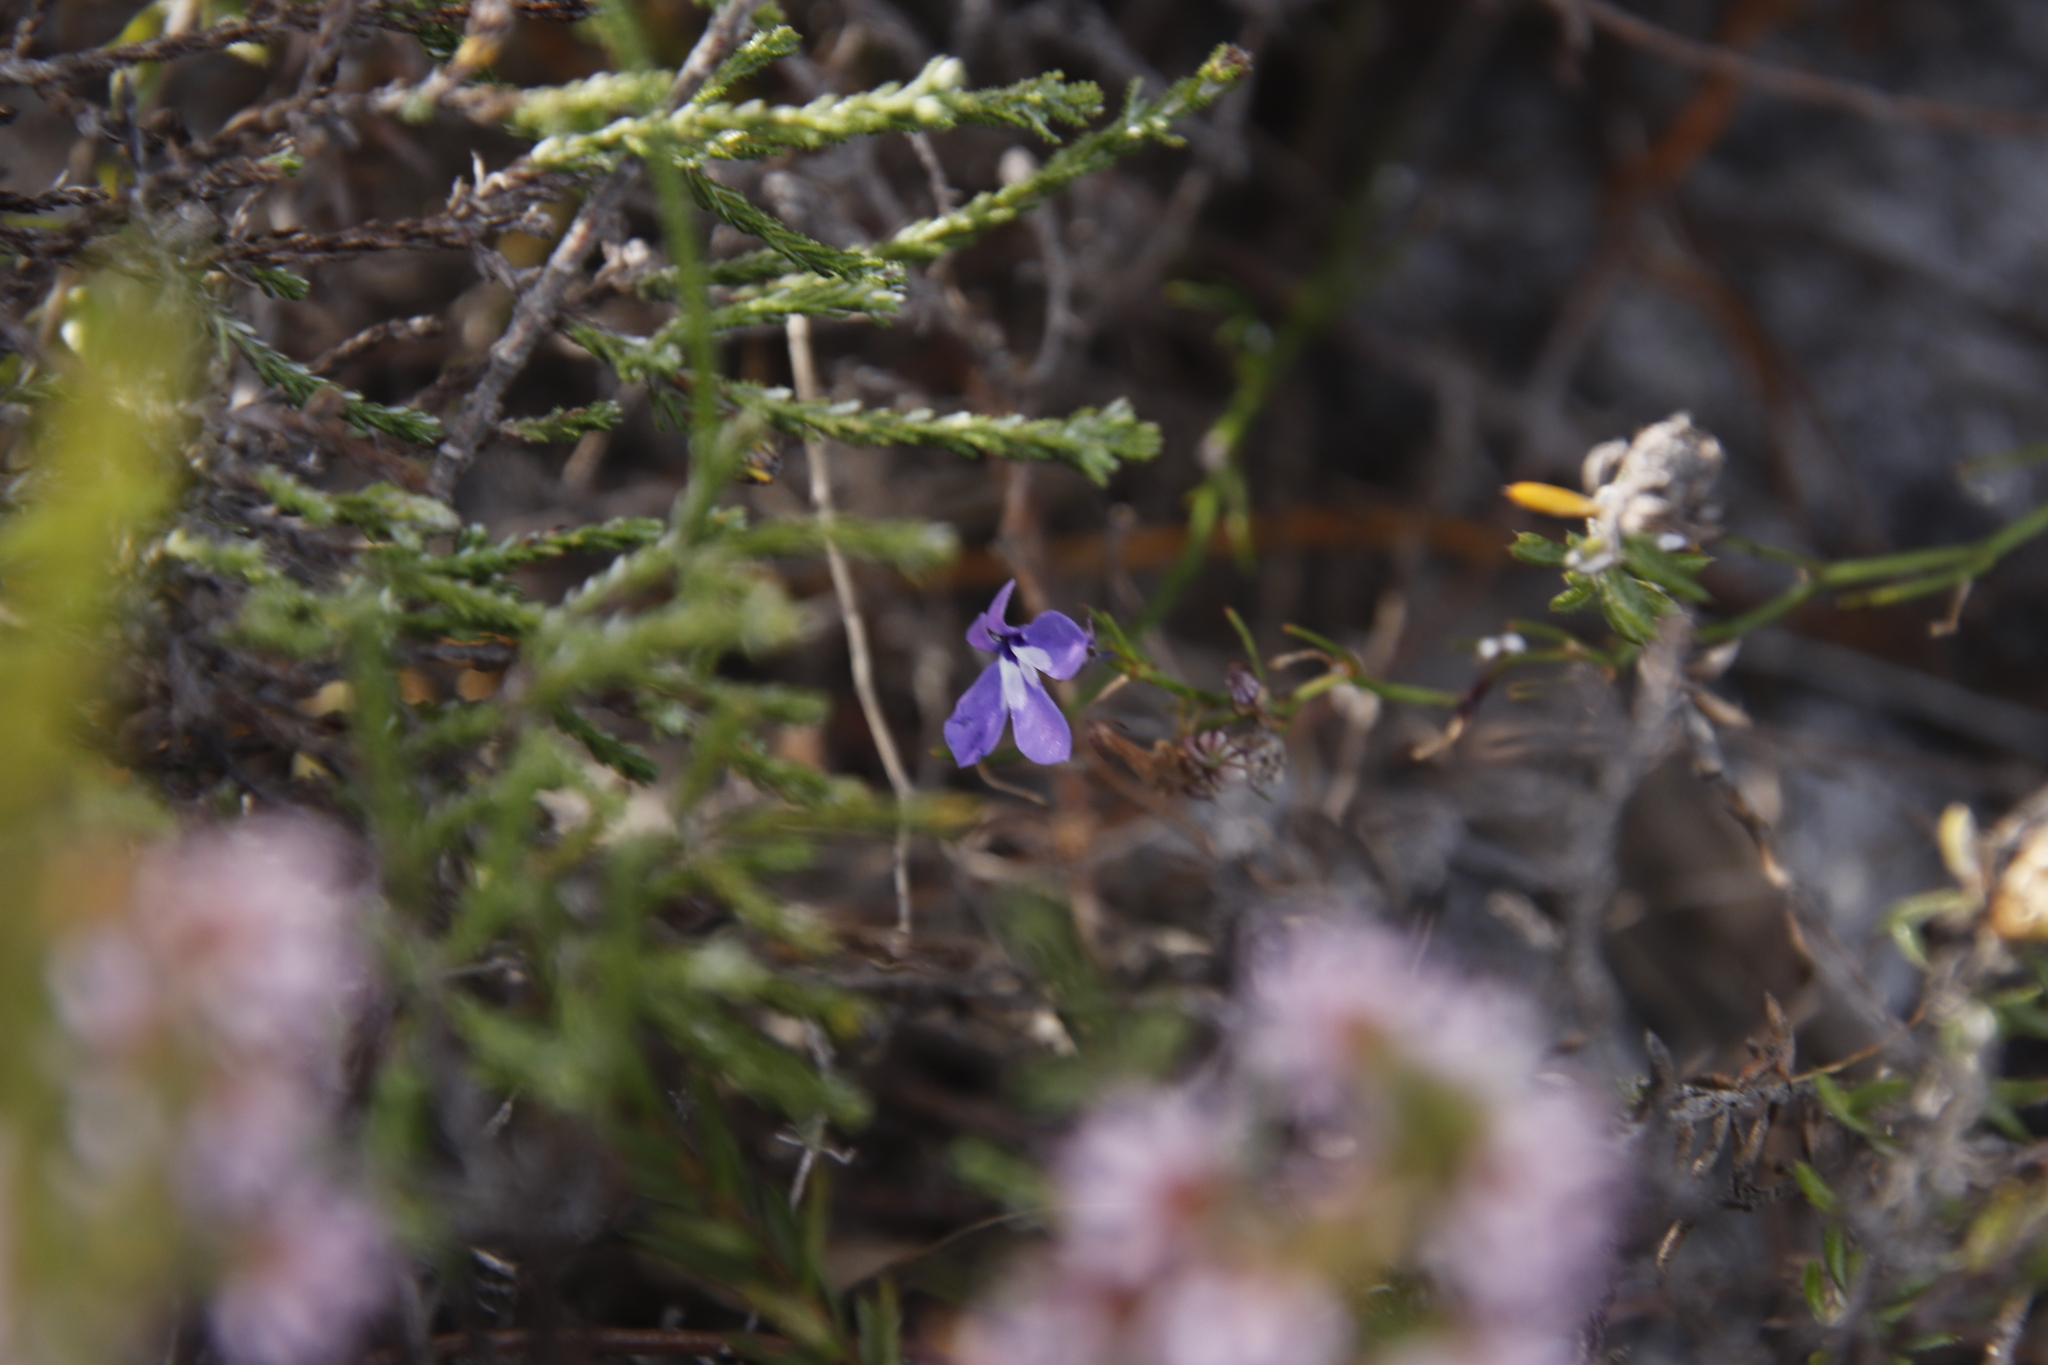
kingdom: Plantae
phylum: Tracheophyta
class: Magnoliopsida
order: Asterales
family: Campanulaceae
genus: Lobelia
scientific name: Lobelia setacea
